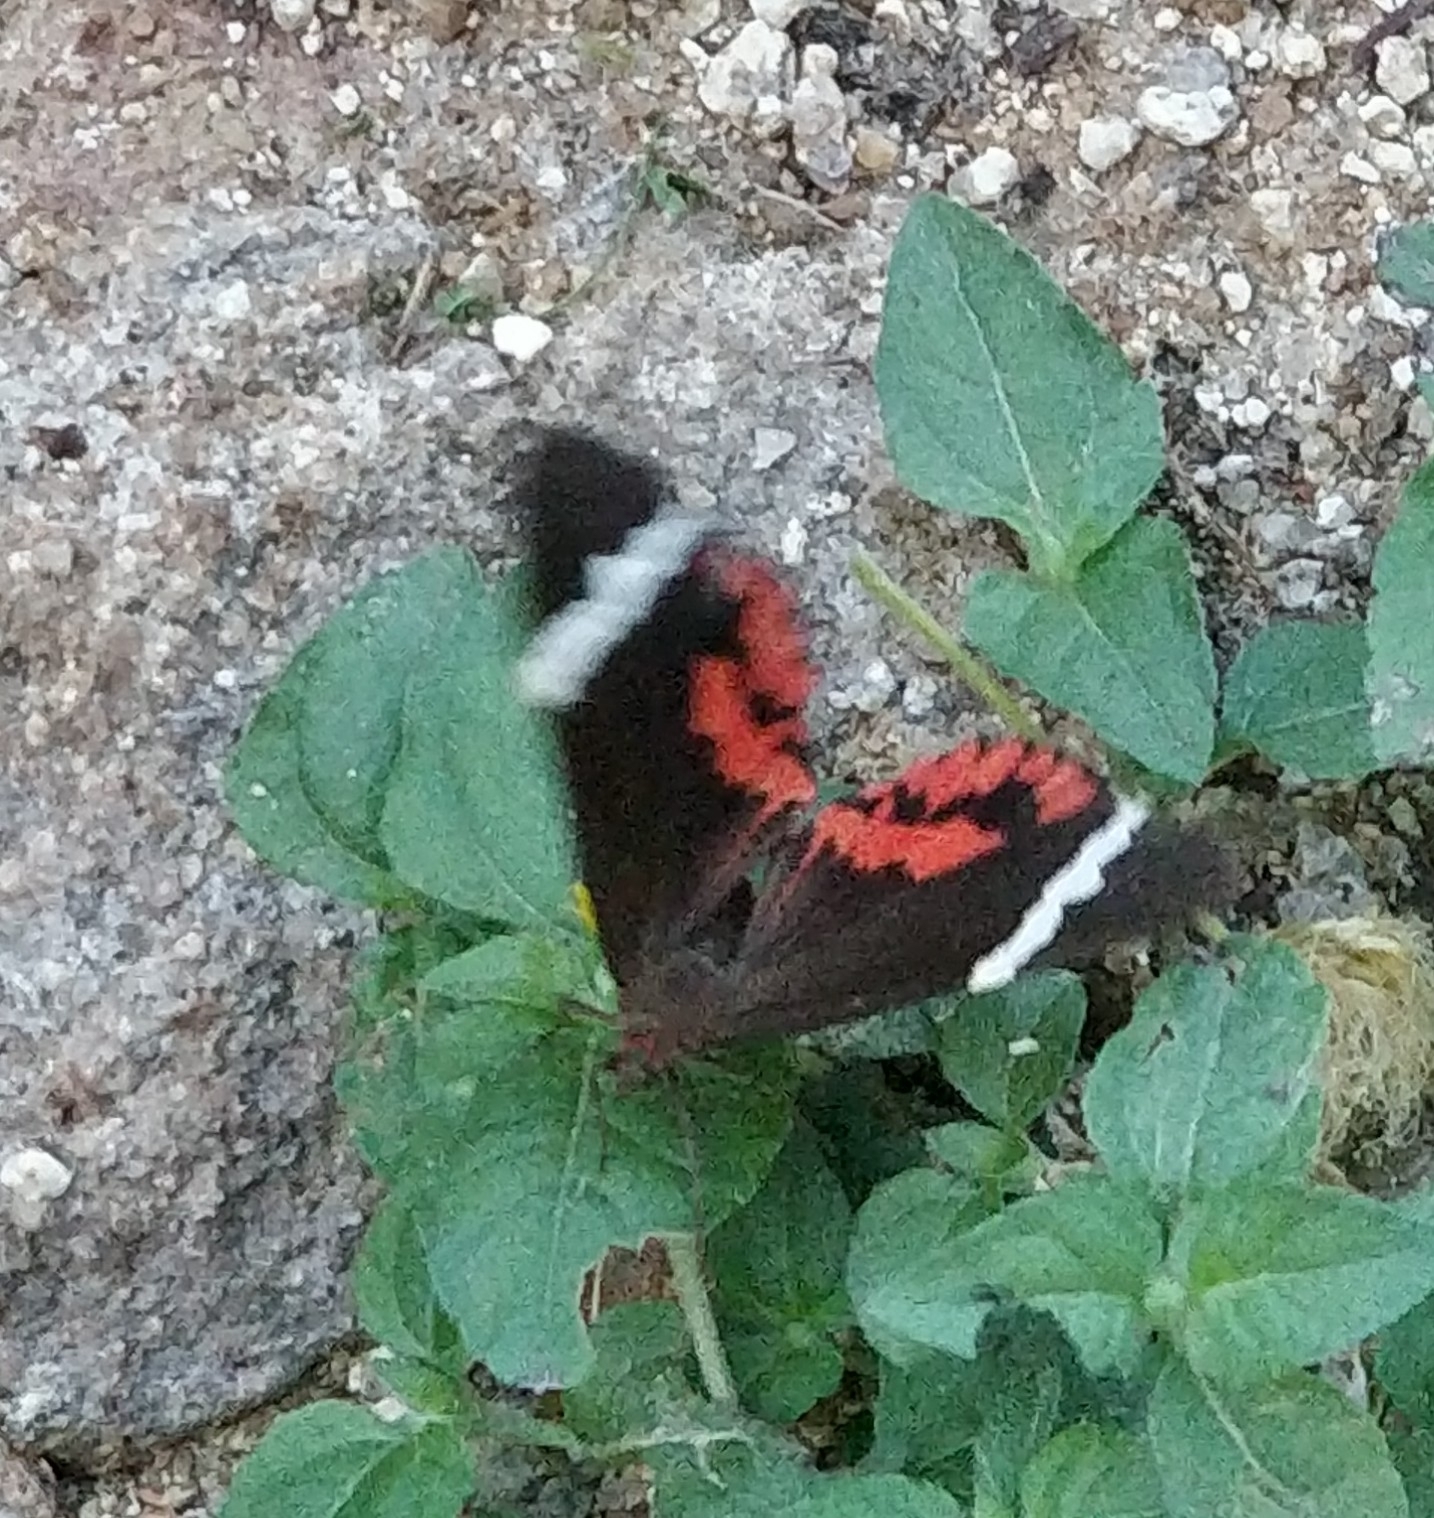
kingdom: Animalia
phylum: Arthropoda
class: Insecta
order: Lepidoptera
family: Erebidae
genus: Curoba
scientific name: Curoba sangarida
